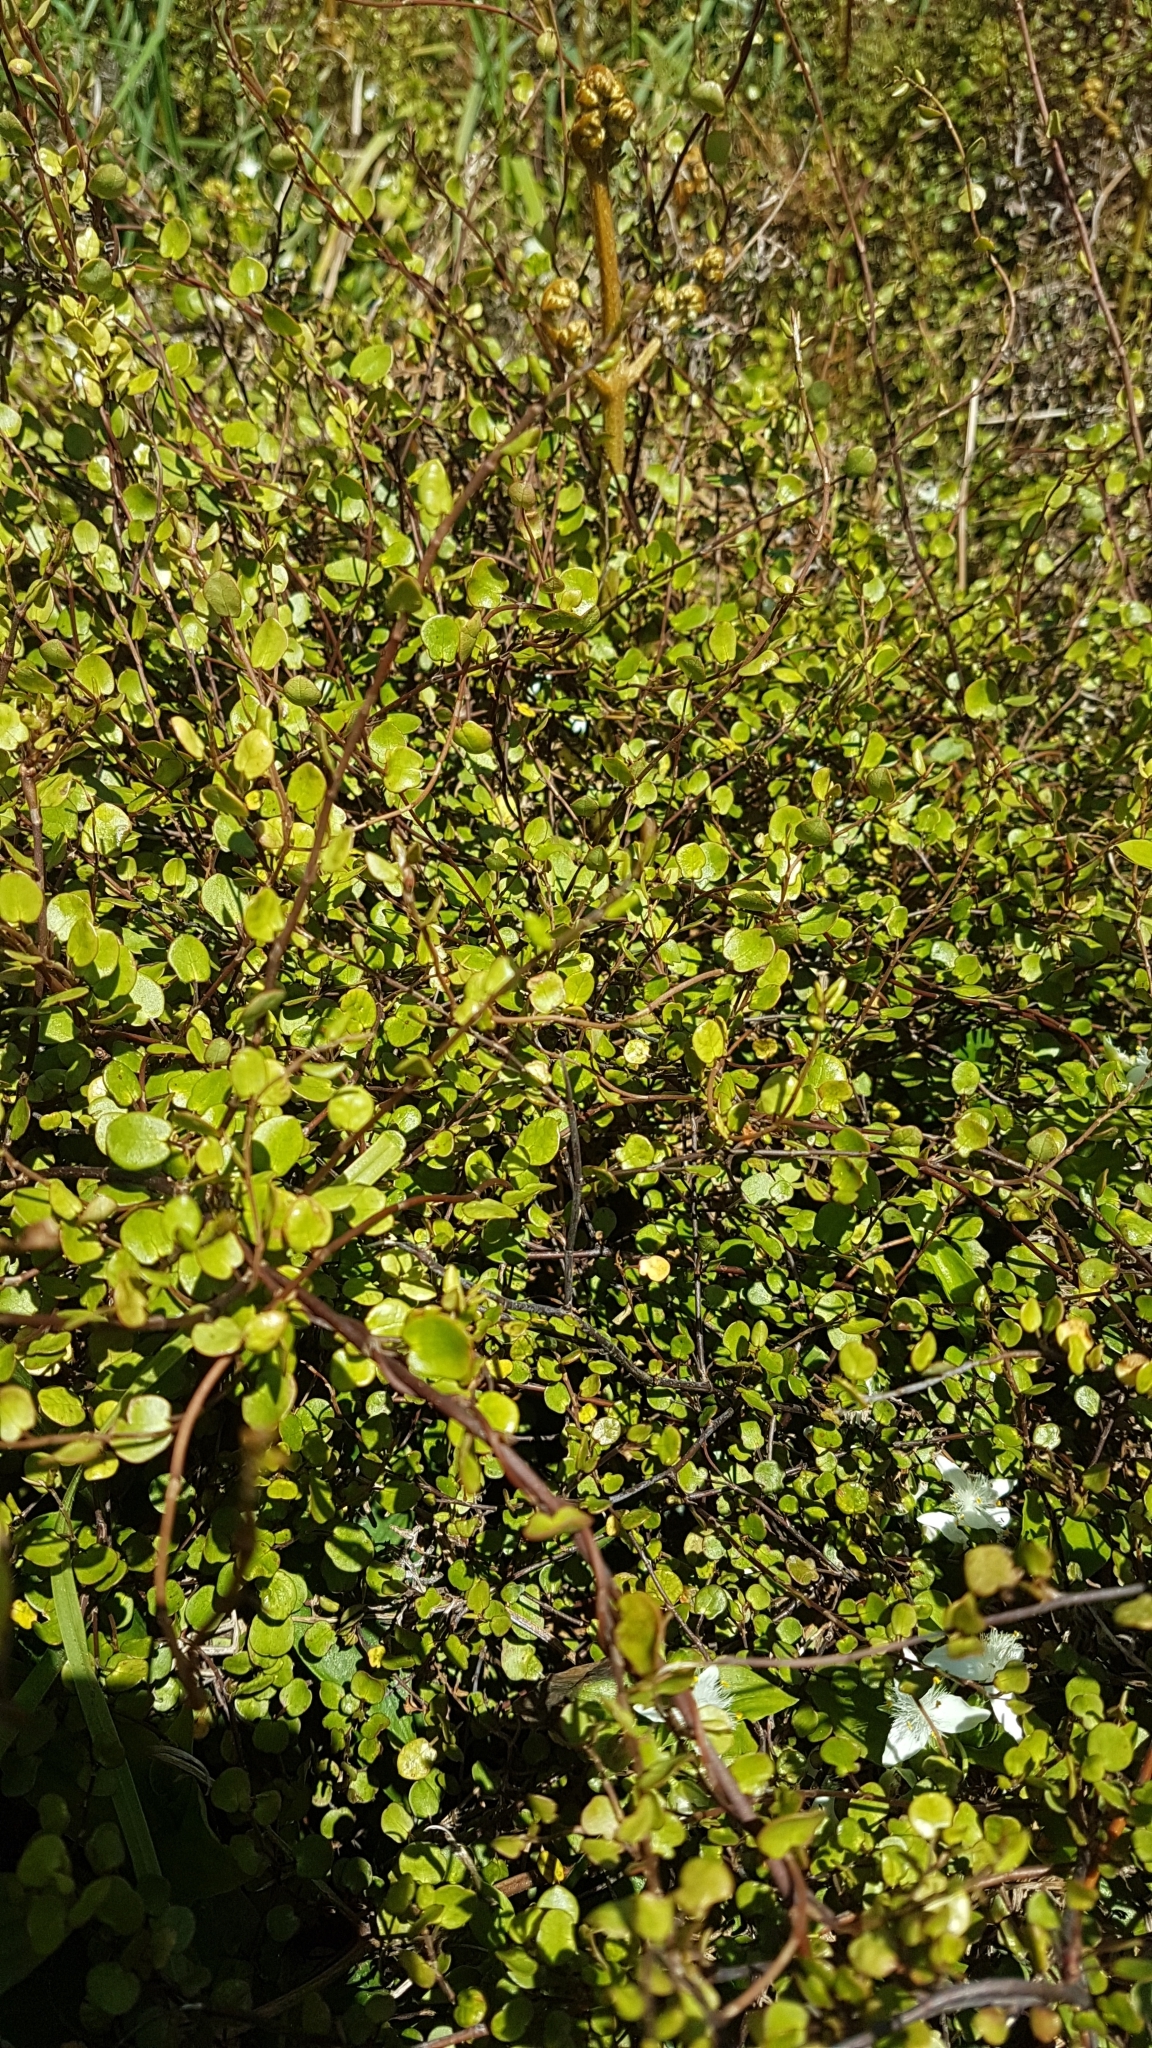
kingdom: Plantae
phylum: Tracheophyta
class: Magnoliopsida
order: Caryophyllales
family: Polygonaceae
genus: Muehlenbeckia
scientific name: Muehlenbeckia complexa
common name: Wireplant
